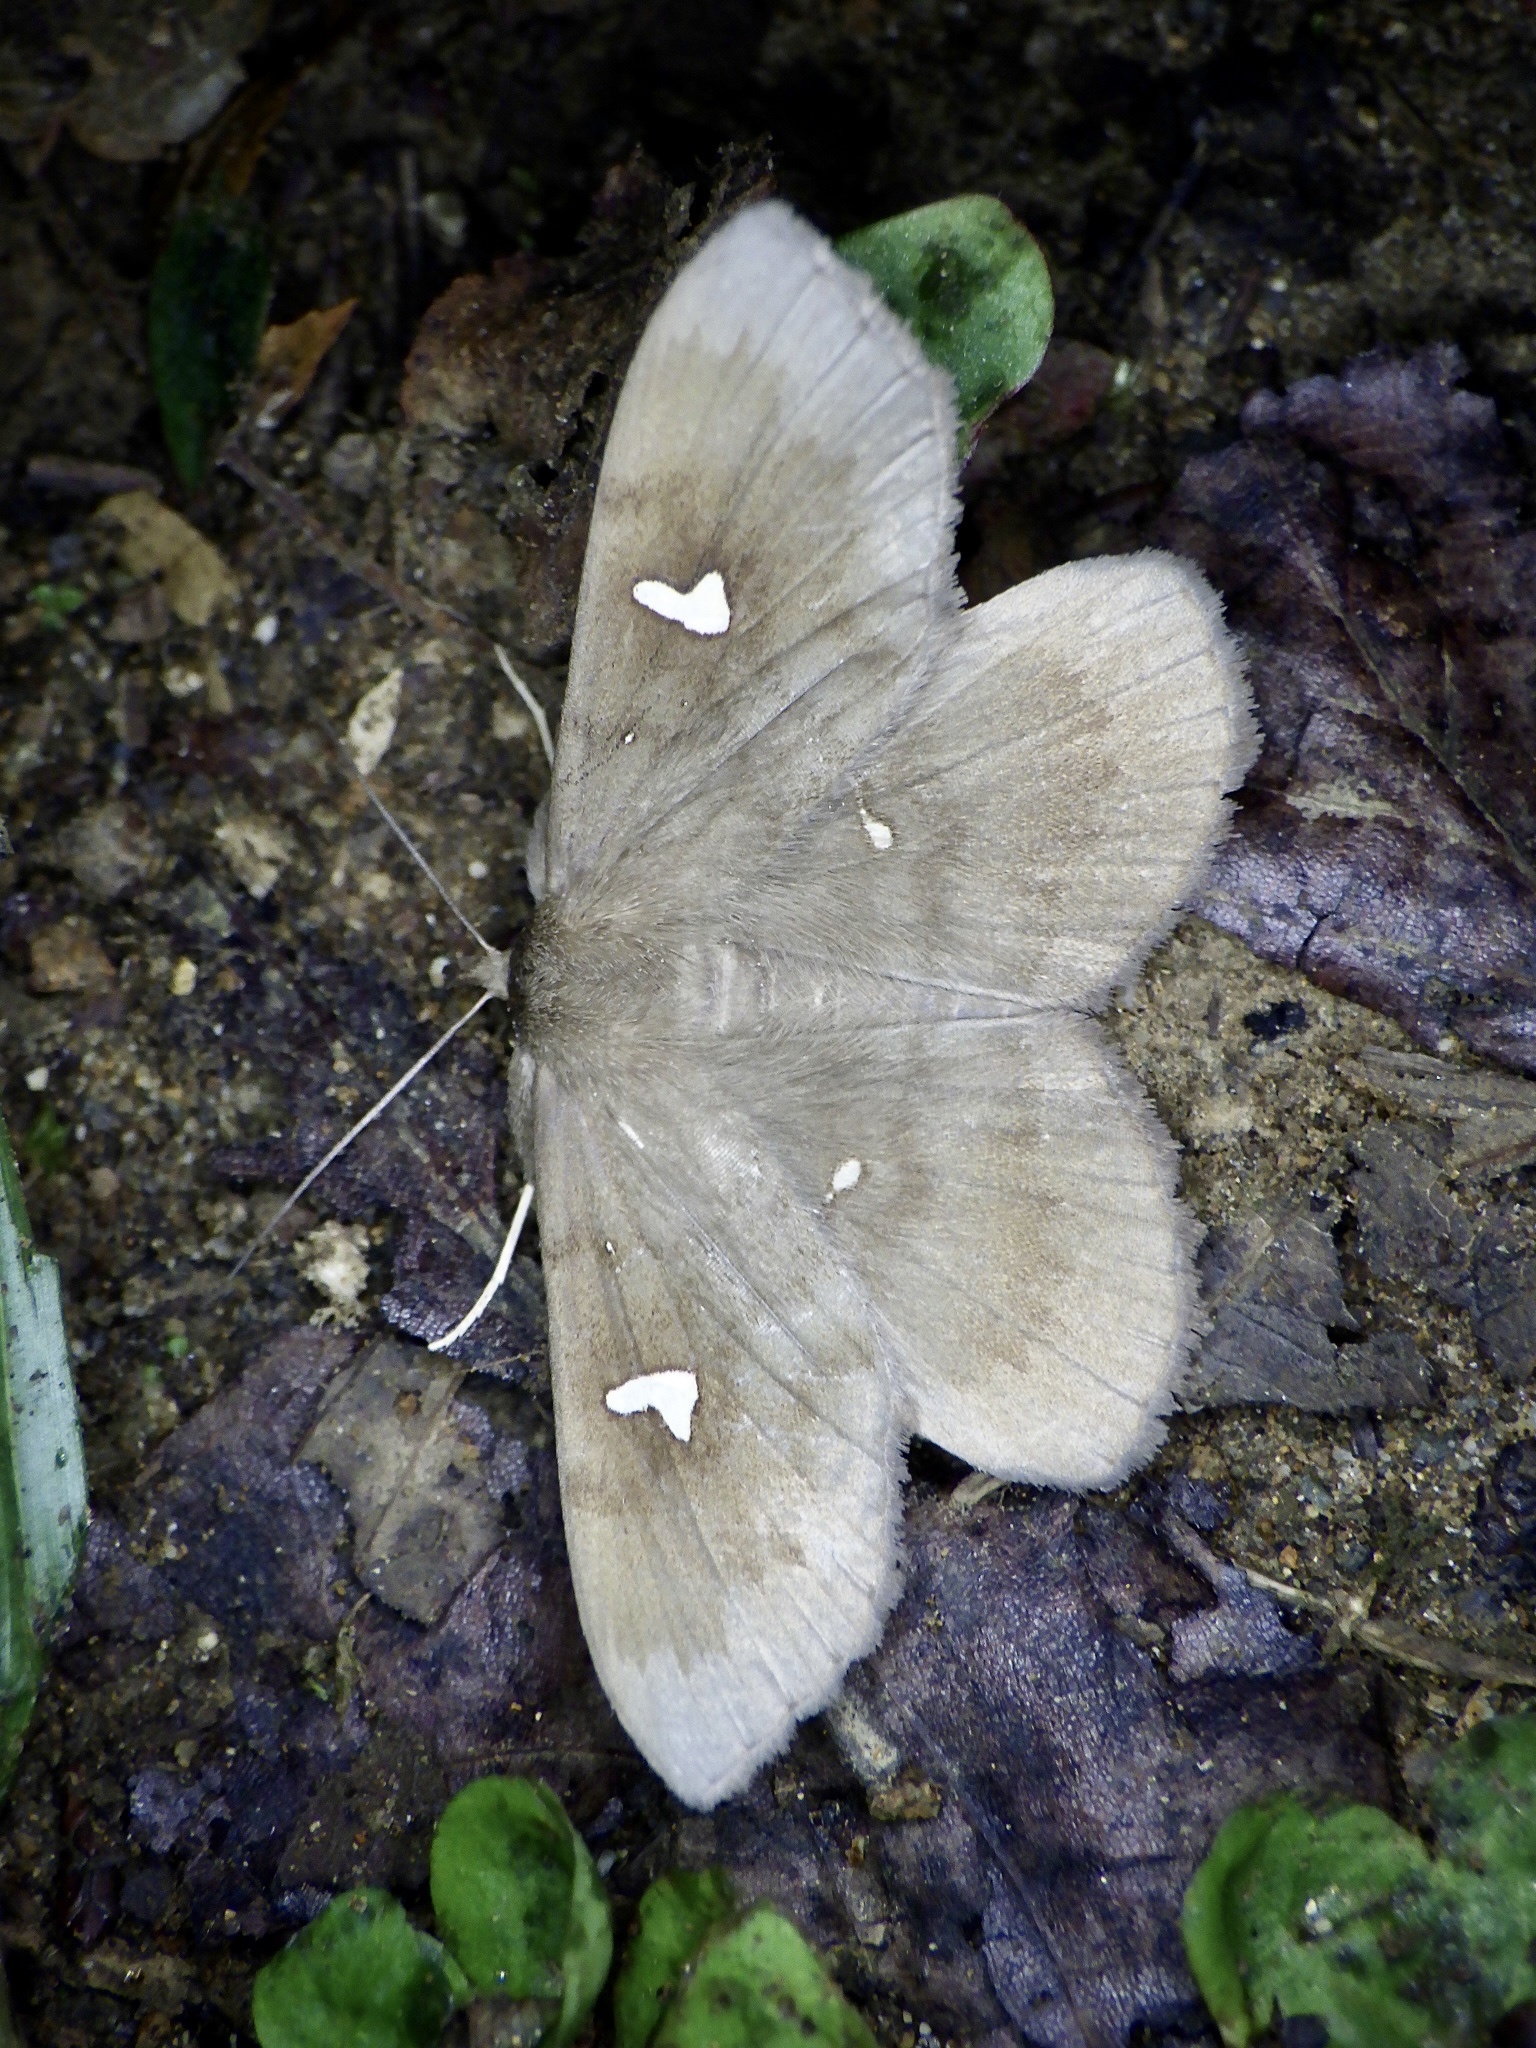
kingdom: Animalia
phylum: Arthropoda
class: Insecta
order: Lepidoptera
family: Erebidae
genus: Edessena
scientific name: Edessena hamada
